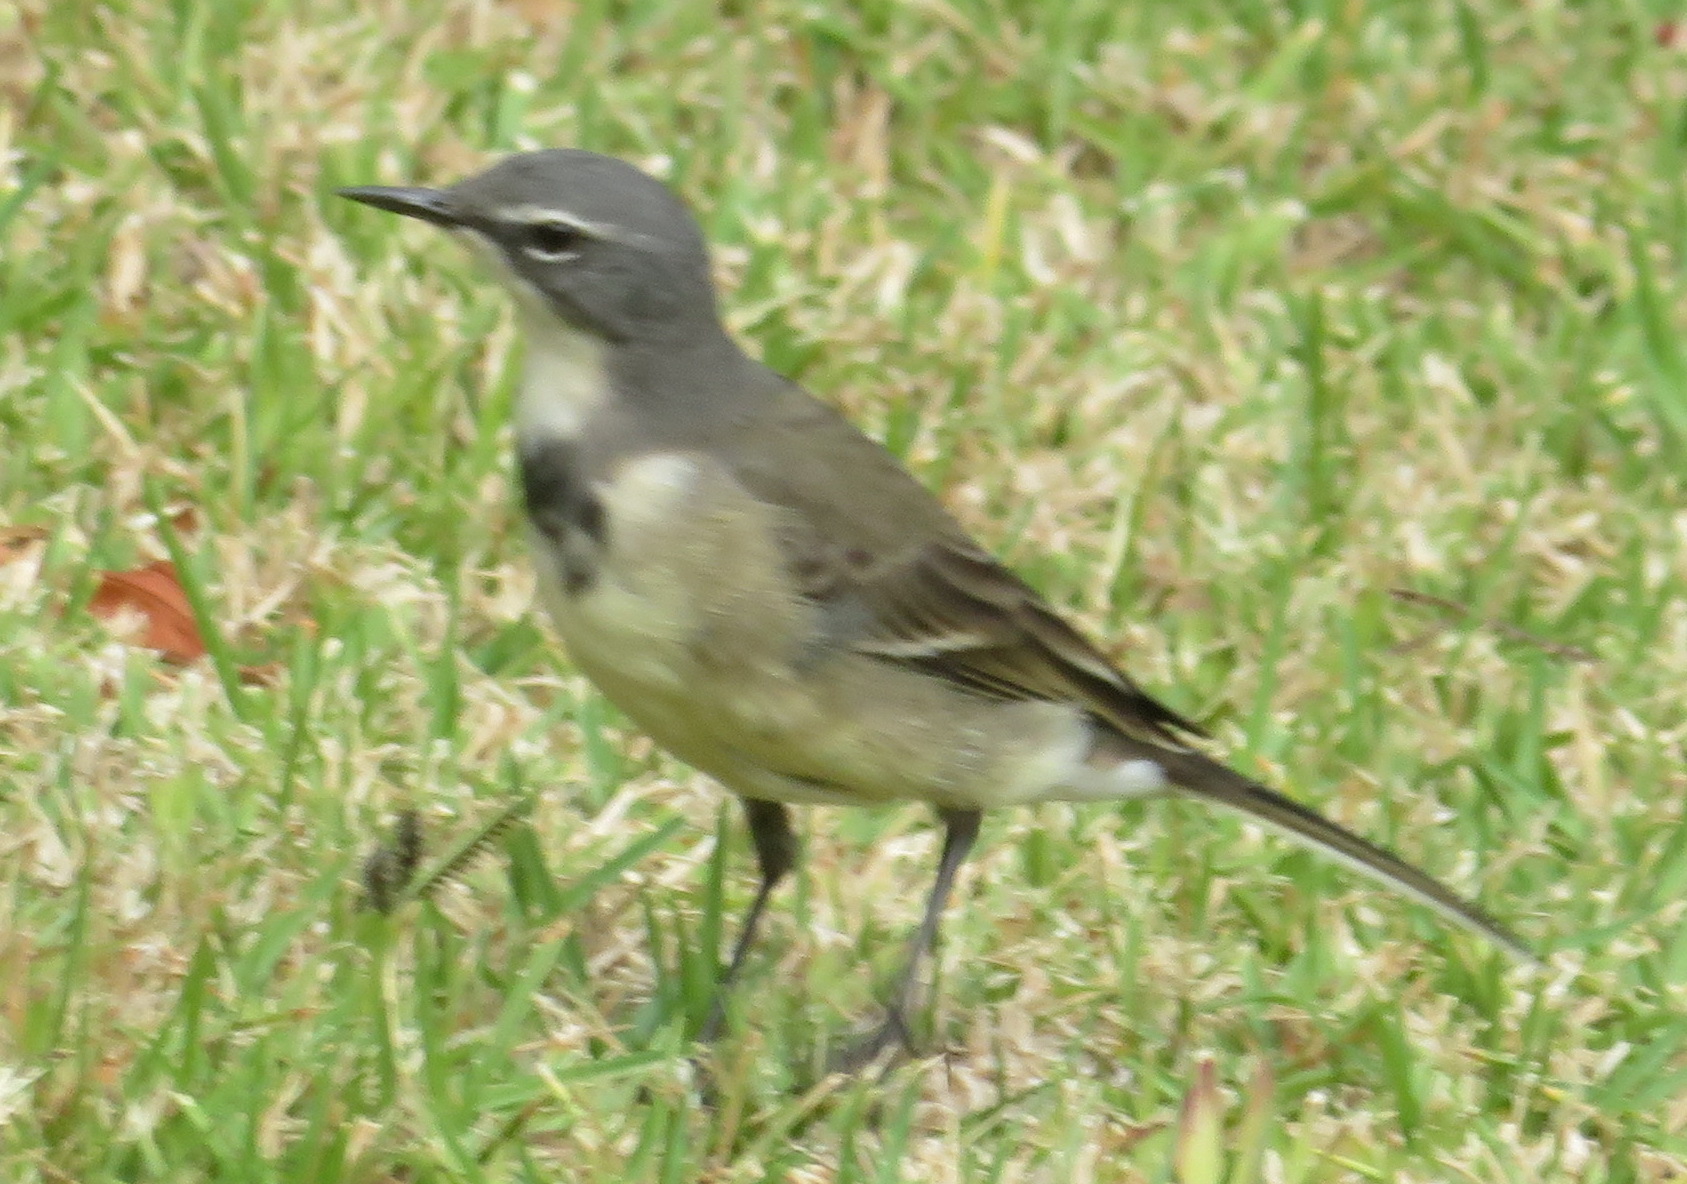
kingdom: Animalia
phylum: Chordata
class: Aves
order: Passeriformes
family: Motacillidae
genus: Motacilla
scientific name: Motacilla capensis
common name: Cape wagtail
